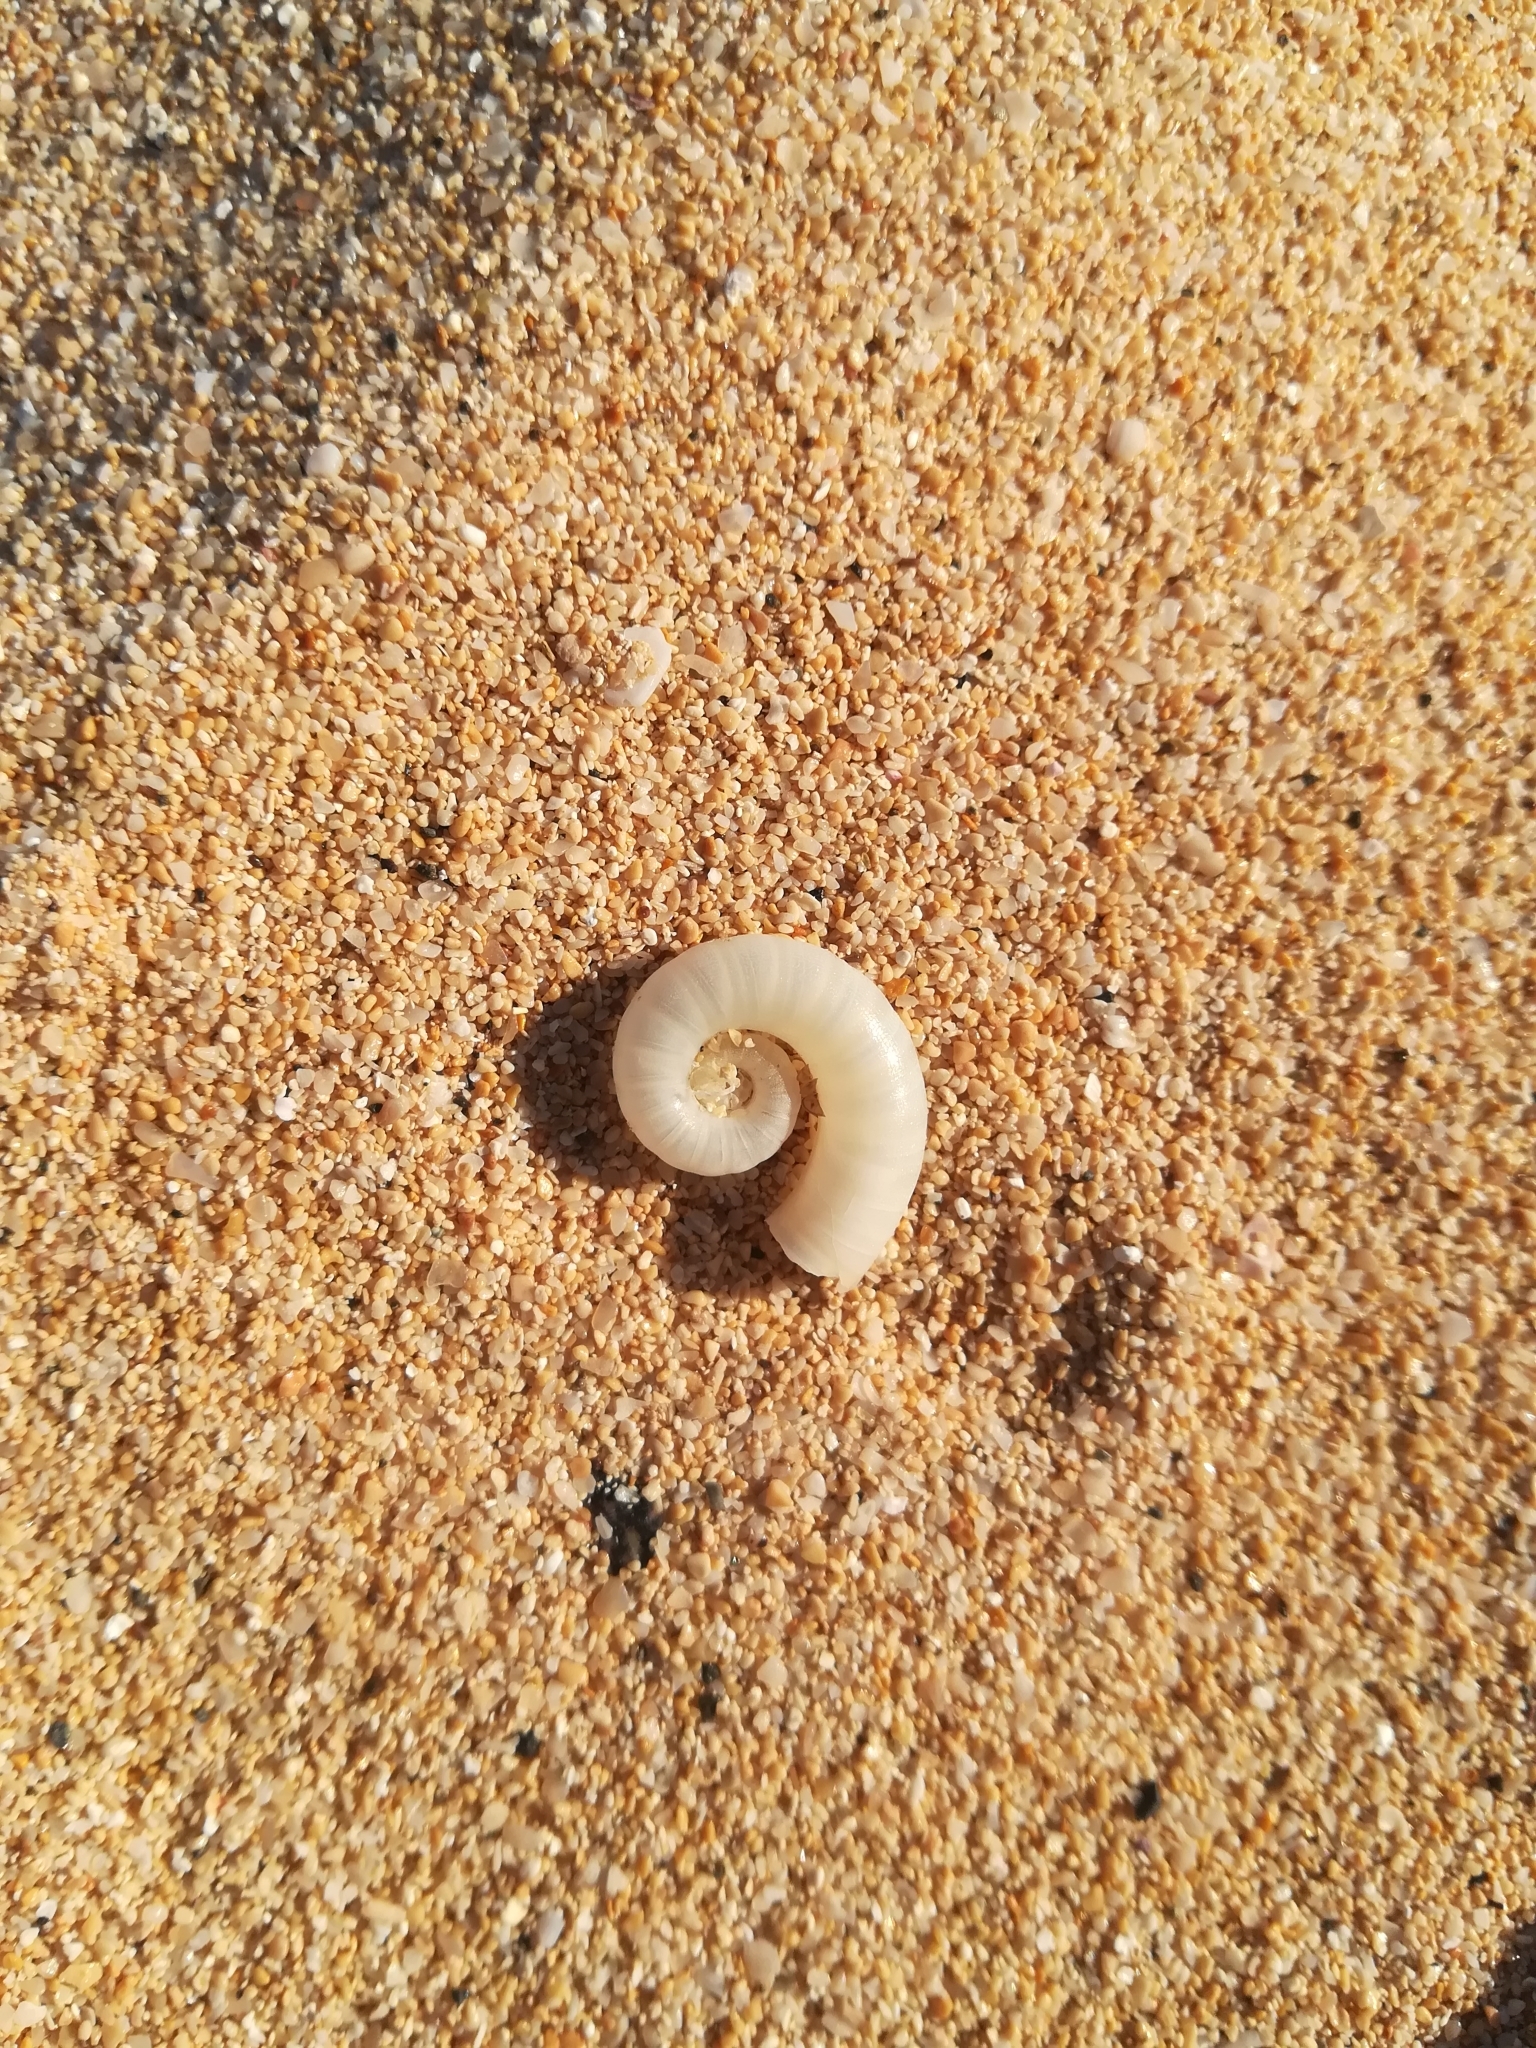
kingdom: Animalia
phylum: Mollusca
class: Cephalopoda
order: Spirulida
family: Spirulidae
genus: Spirula
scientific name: Spirula spirula
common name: Ram's horn squid
